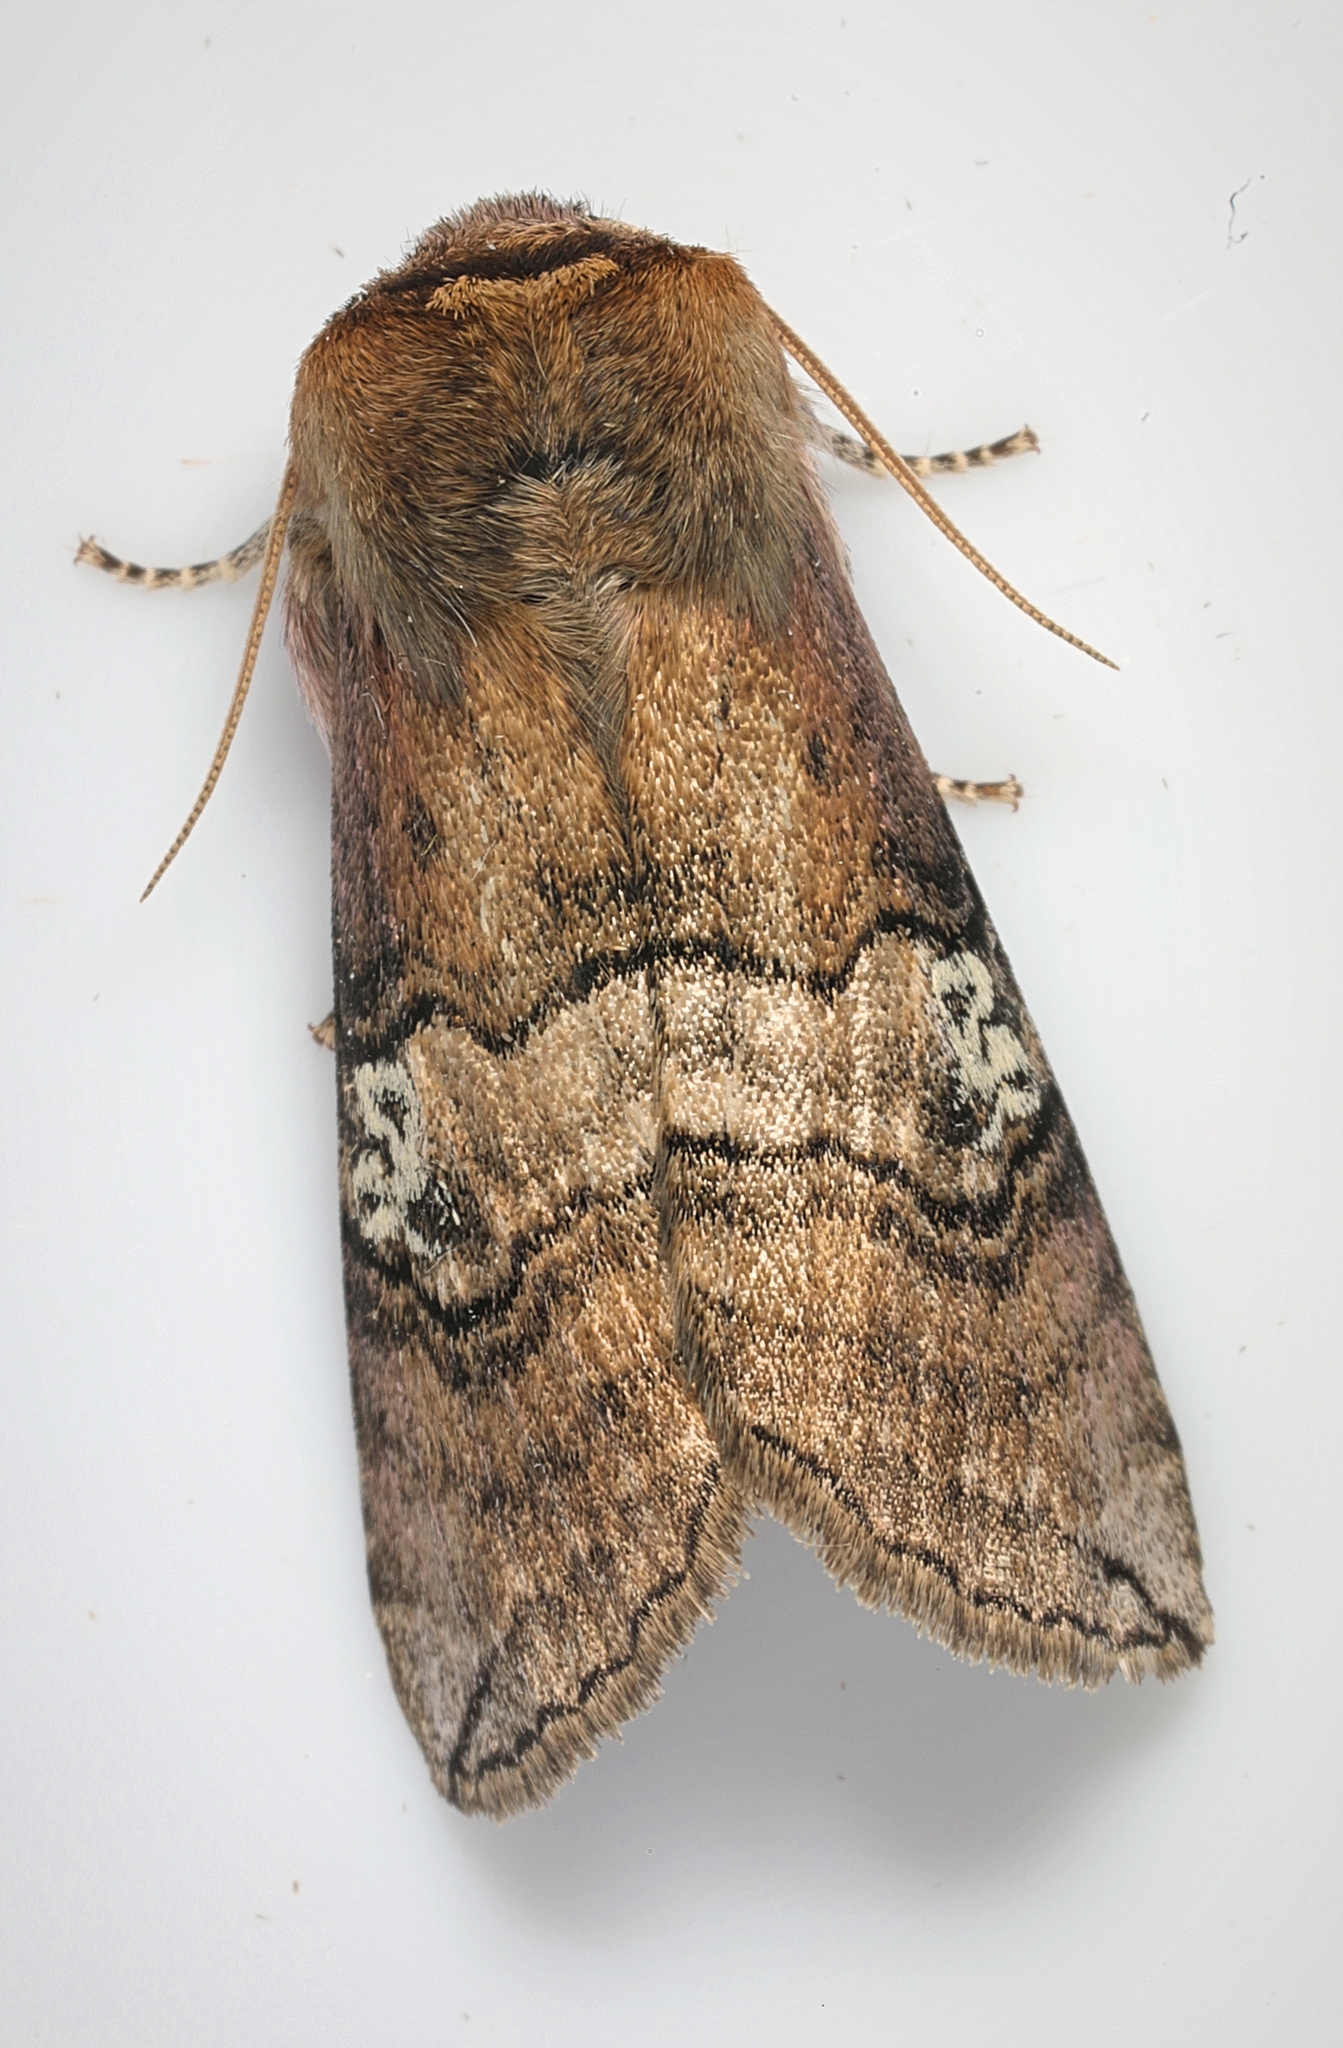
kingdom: Animalia
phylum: Arthropoda
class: Insecta
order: Lepidoptera
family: Drepanidae
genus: Tethea
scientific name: Tethea ocularis
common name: Figure of eighty
